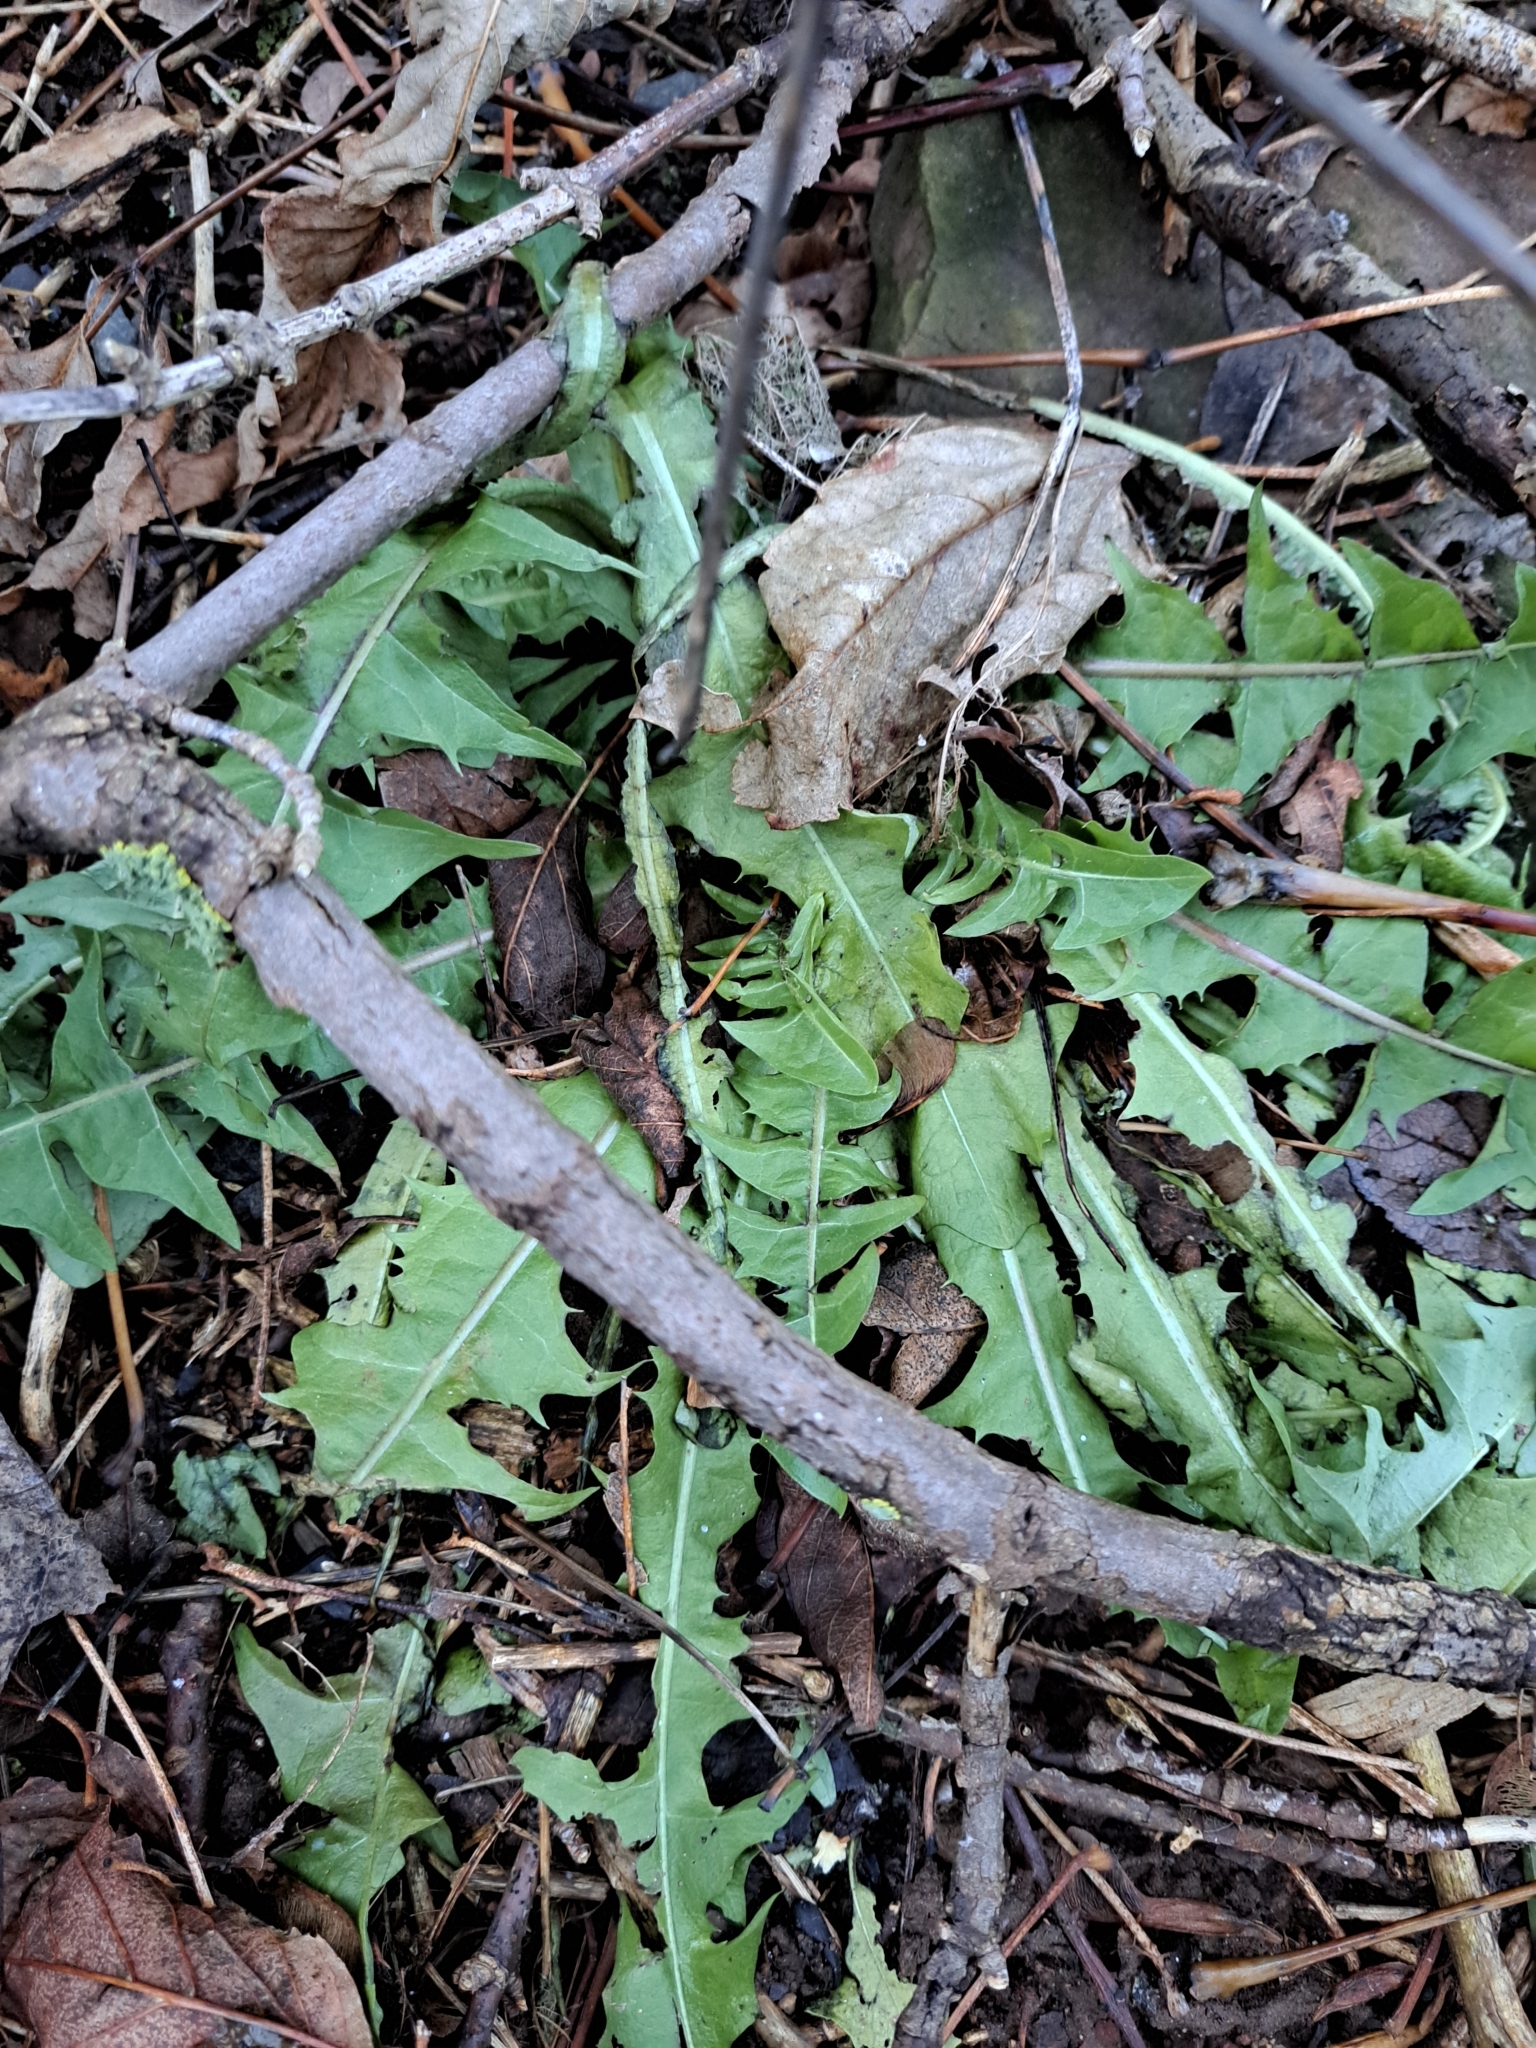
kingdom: Plantae
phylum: Tracheophyta
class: Magnoliopsida
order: Asterales
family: Asteraceae
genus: Taraxacum
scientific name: Taraxacum officinale
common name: Common dandelion
